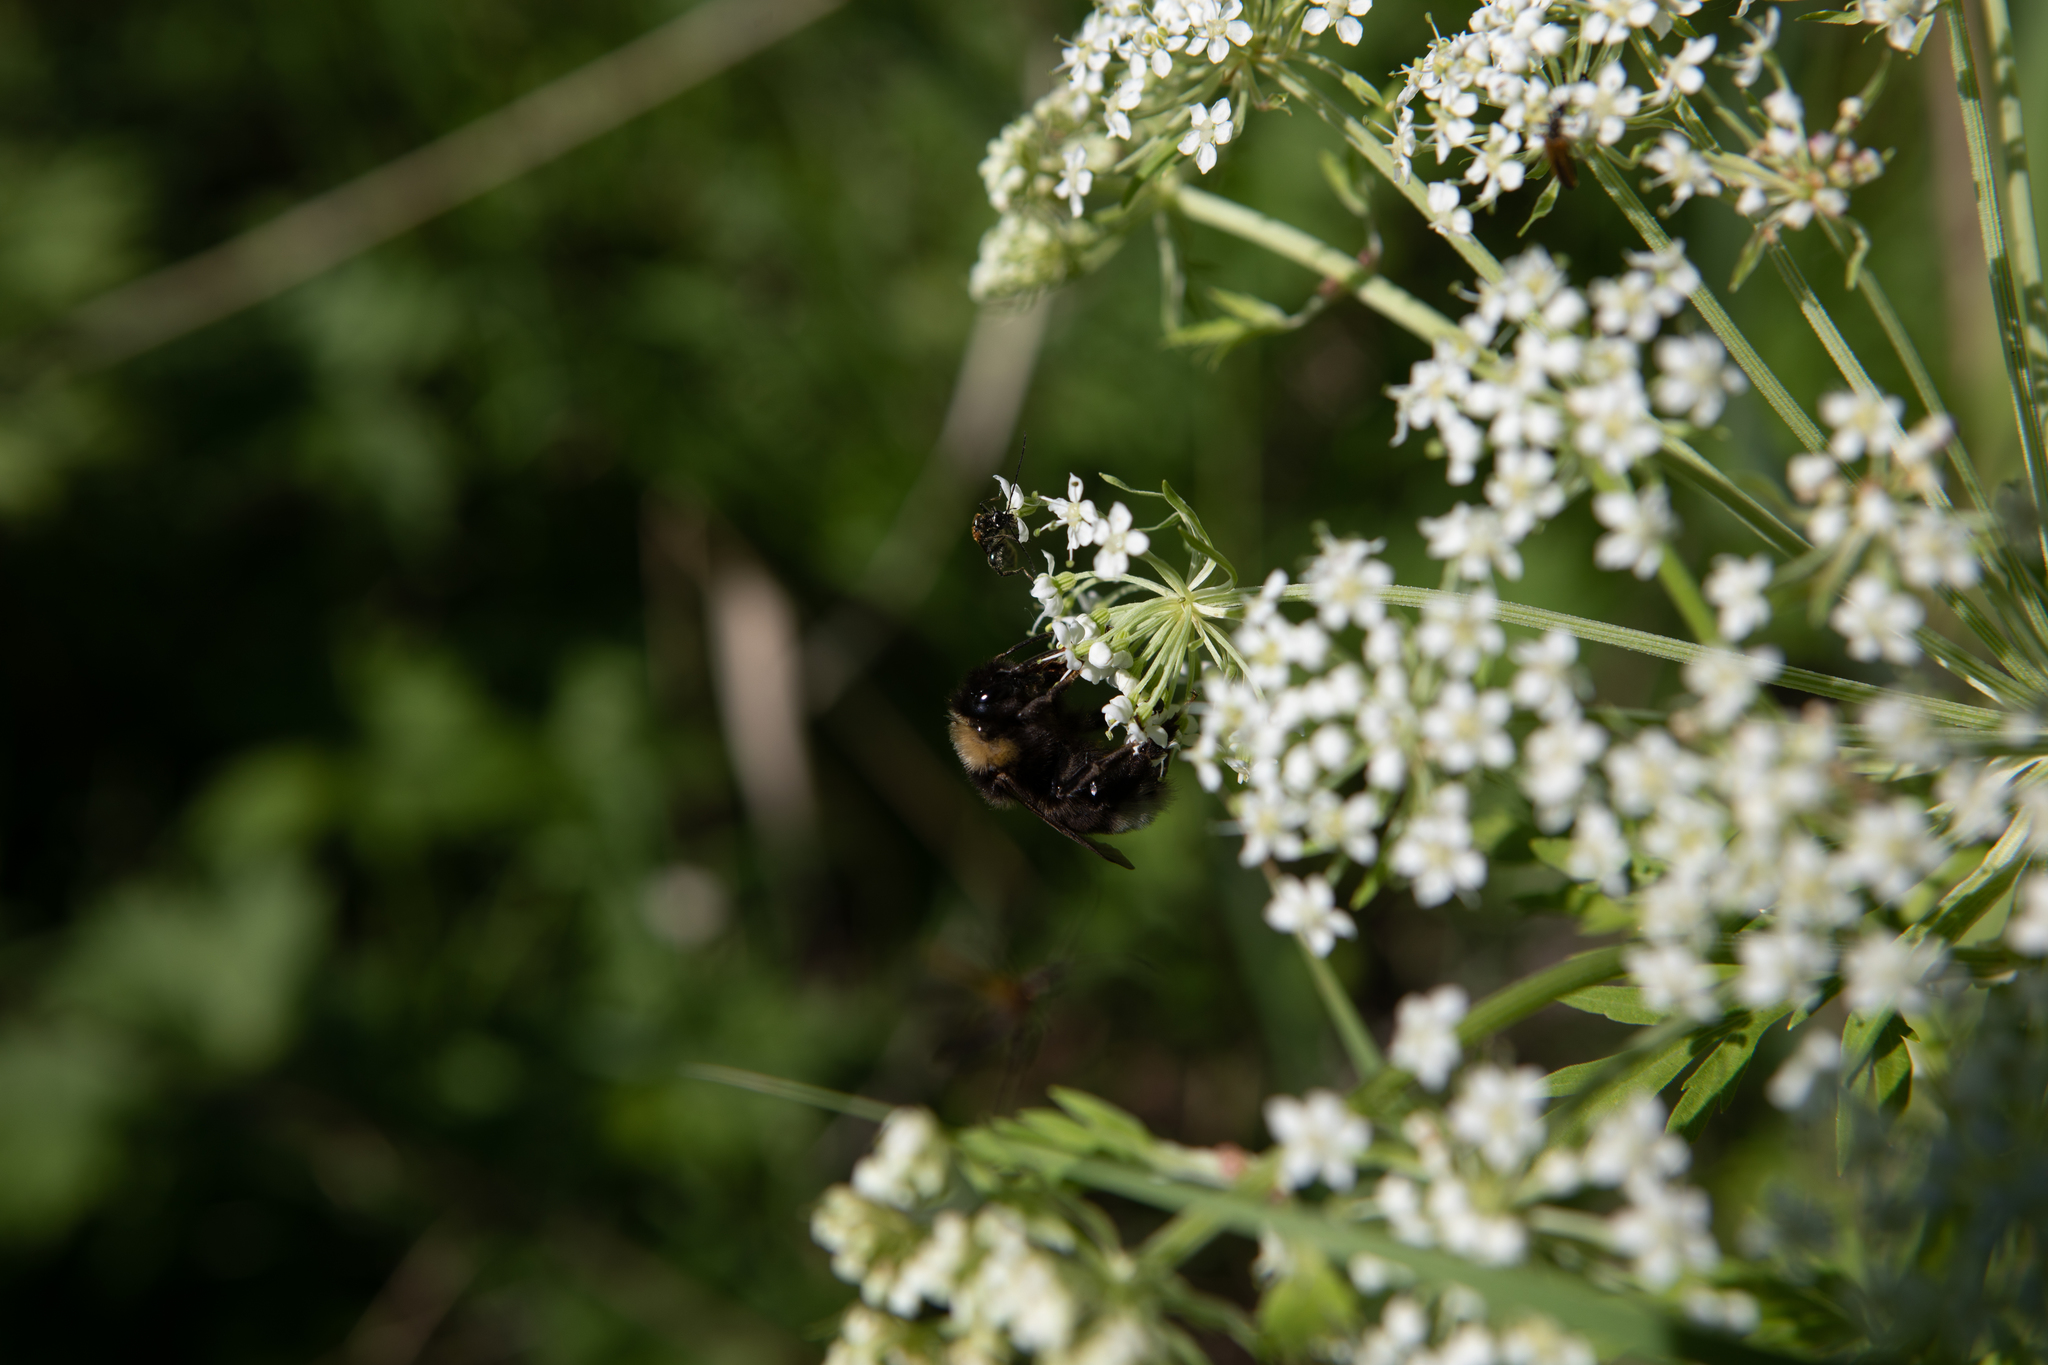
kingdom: Animalia
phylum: Arthropoda
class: Insecta
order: Hymenoptera
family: Apidae
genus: Bombus
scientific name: Bombus bohemicus
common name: Gypsy cuckoo bee
